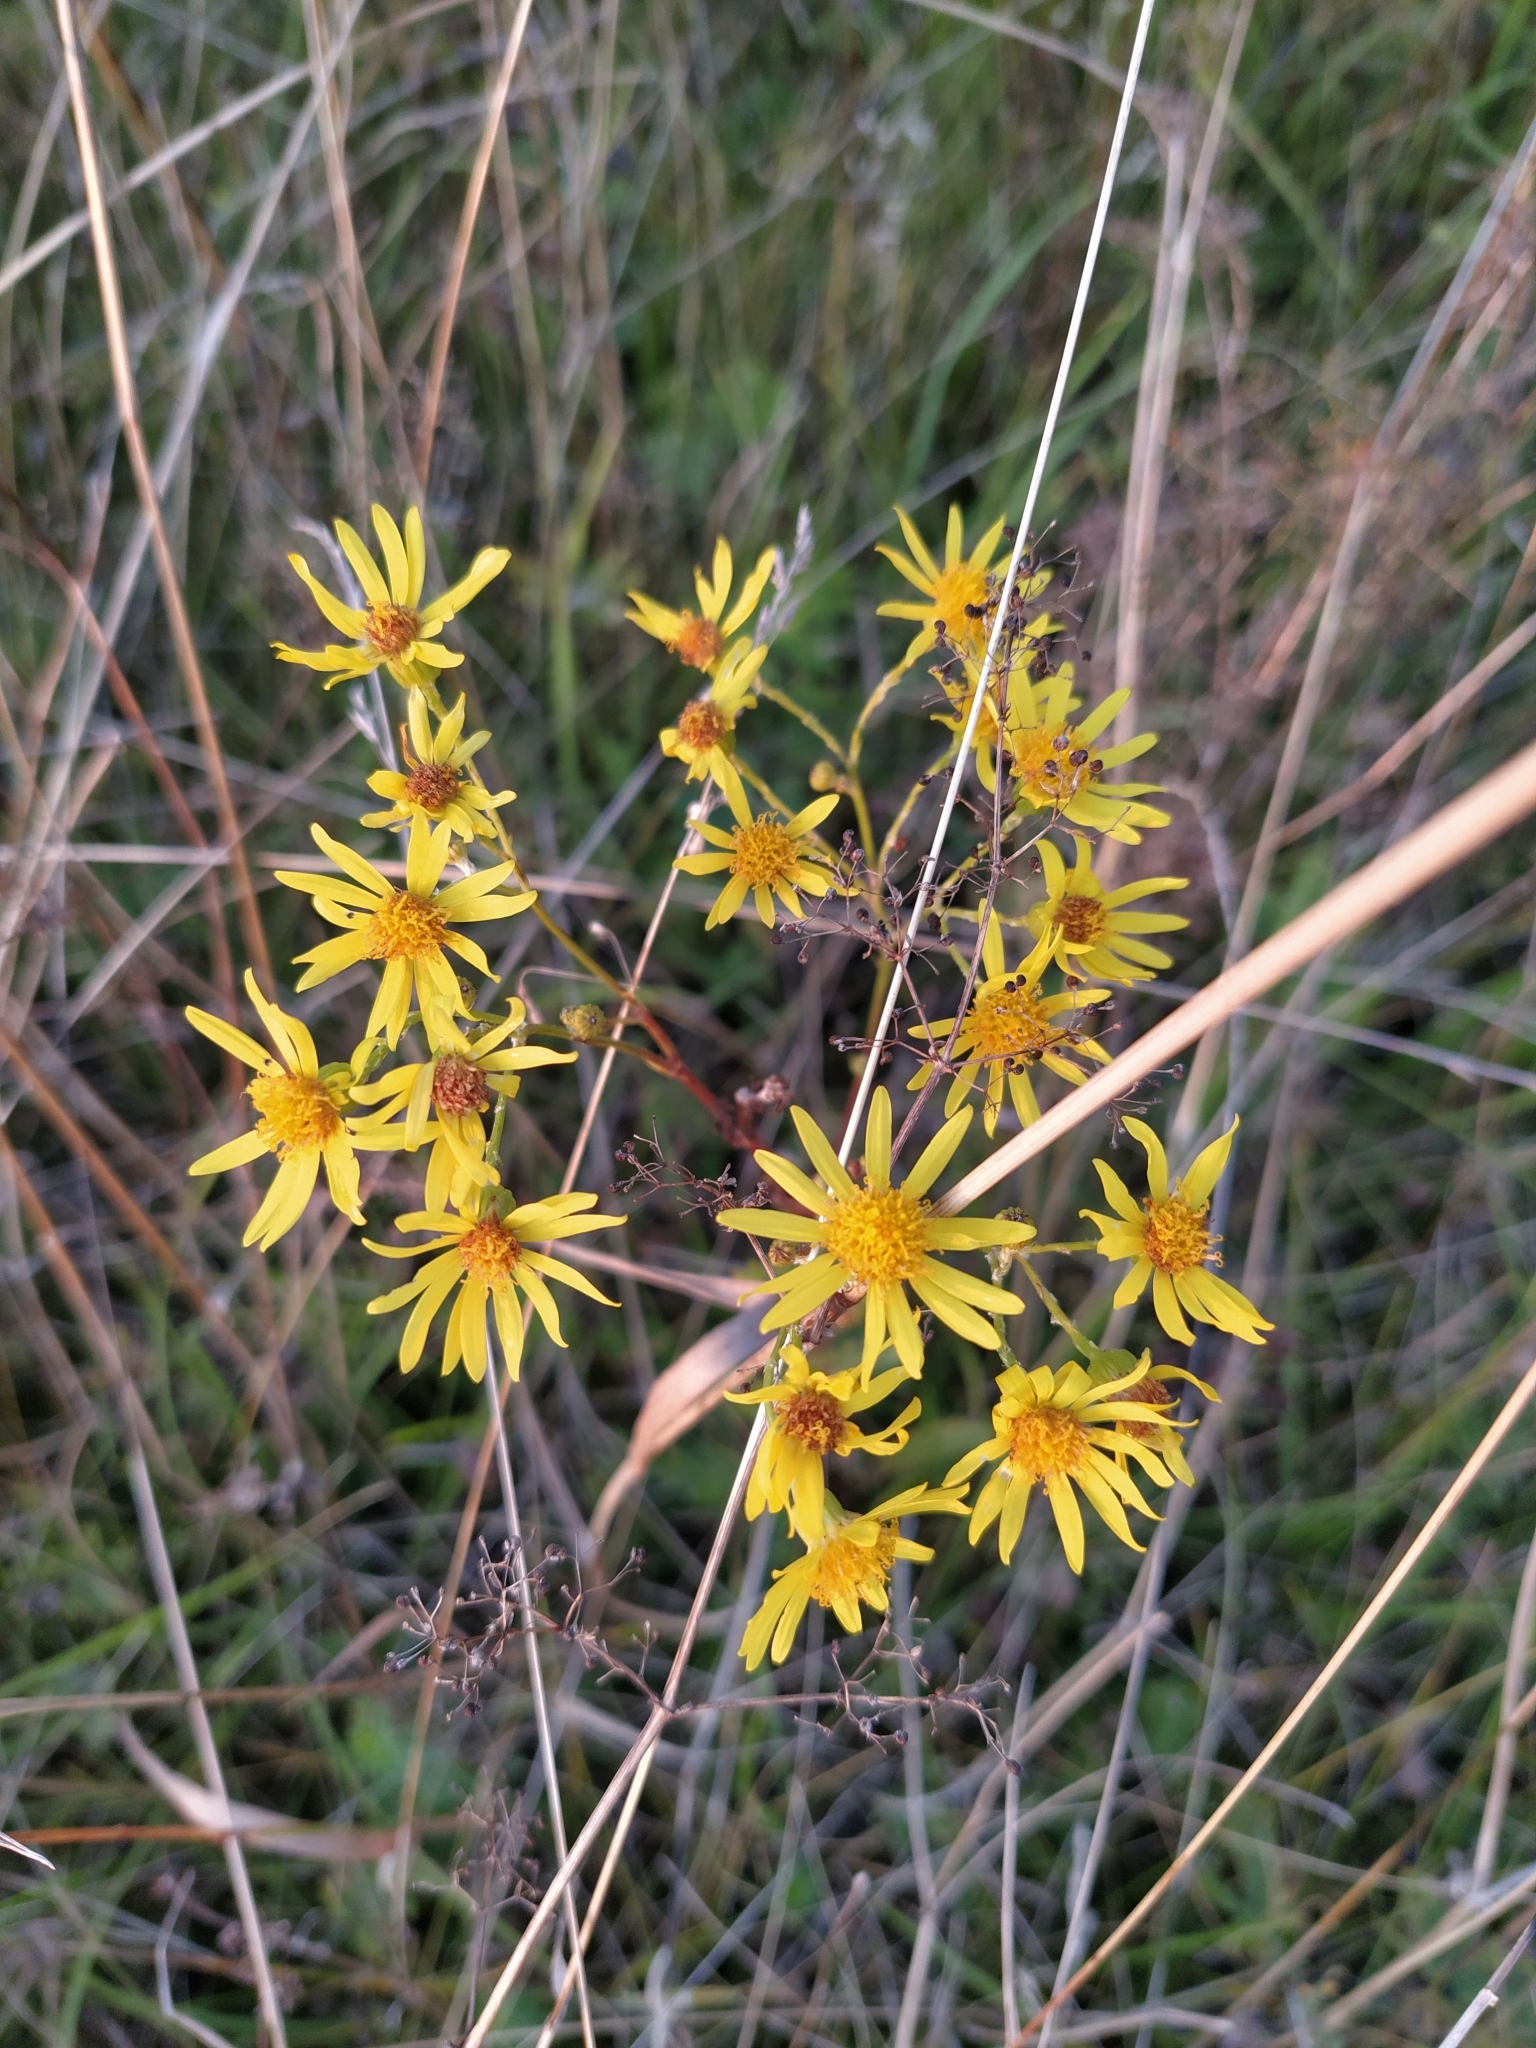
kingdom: Plantae
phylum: Tracheophyta
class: Magnoliopsida
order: Asterales
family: Asteraceae
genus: Jacobaea
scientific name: Jacobaea vulgaris
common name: Stinking willie
